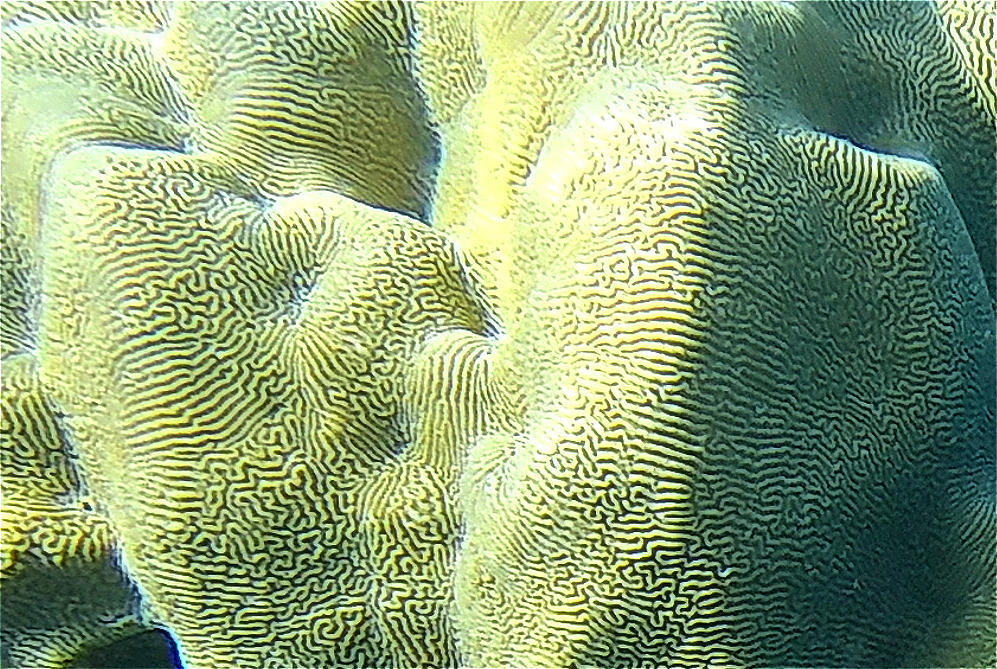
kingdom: Animalia
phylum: Cnidaria
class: Anthozoa
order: Scleractinia
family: Merulinidae
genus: Leptoria
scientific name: Leptoria phrygia
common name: Least valley coral
